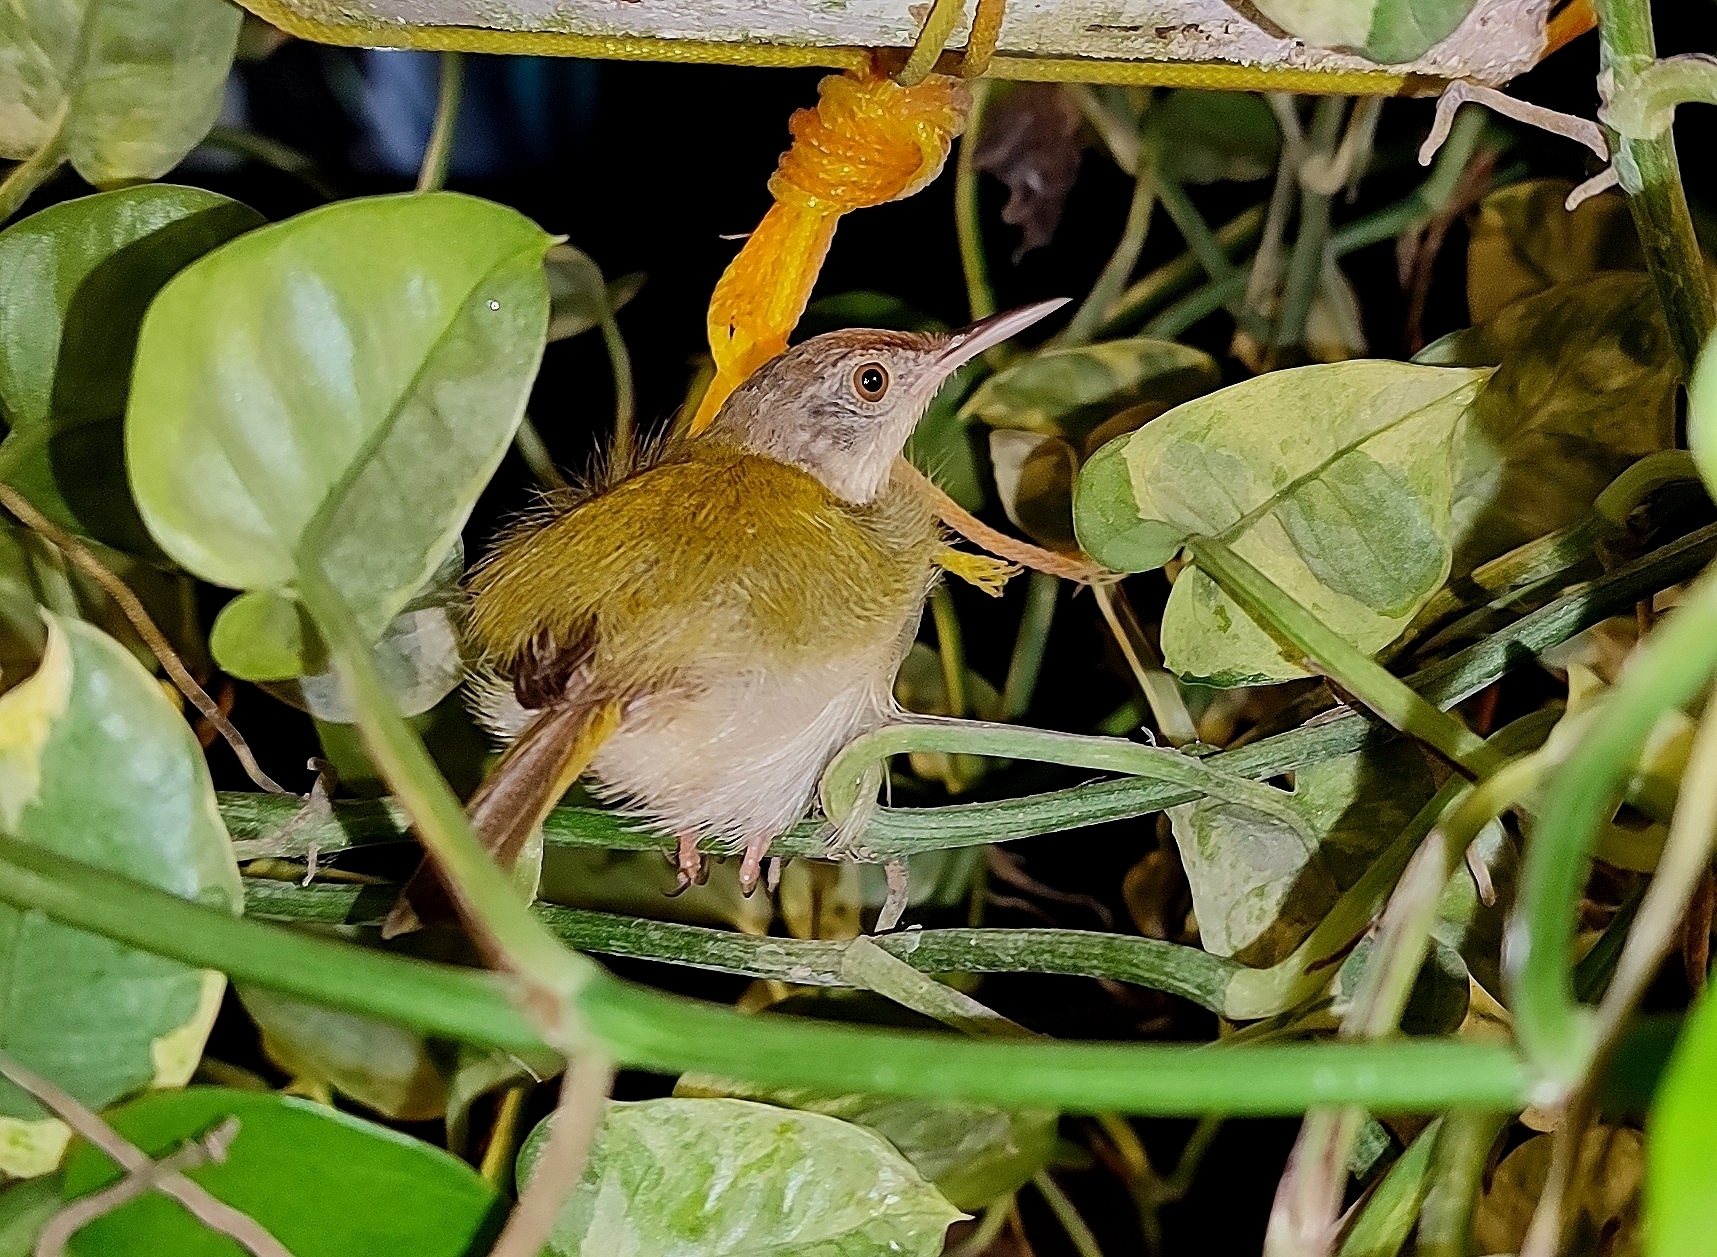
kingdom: Animalia
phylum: Chordata
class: Aves
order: Passeriformes
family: Cisticolidae
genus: Orthotomus
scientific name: Orthotomus sutorius
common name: Common tailorbird
